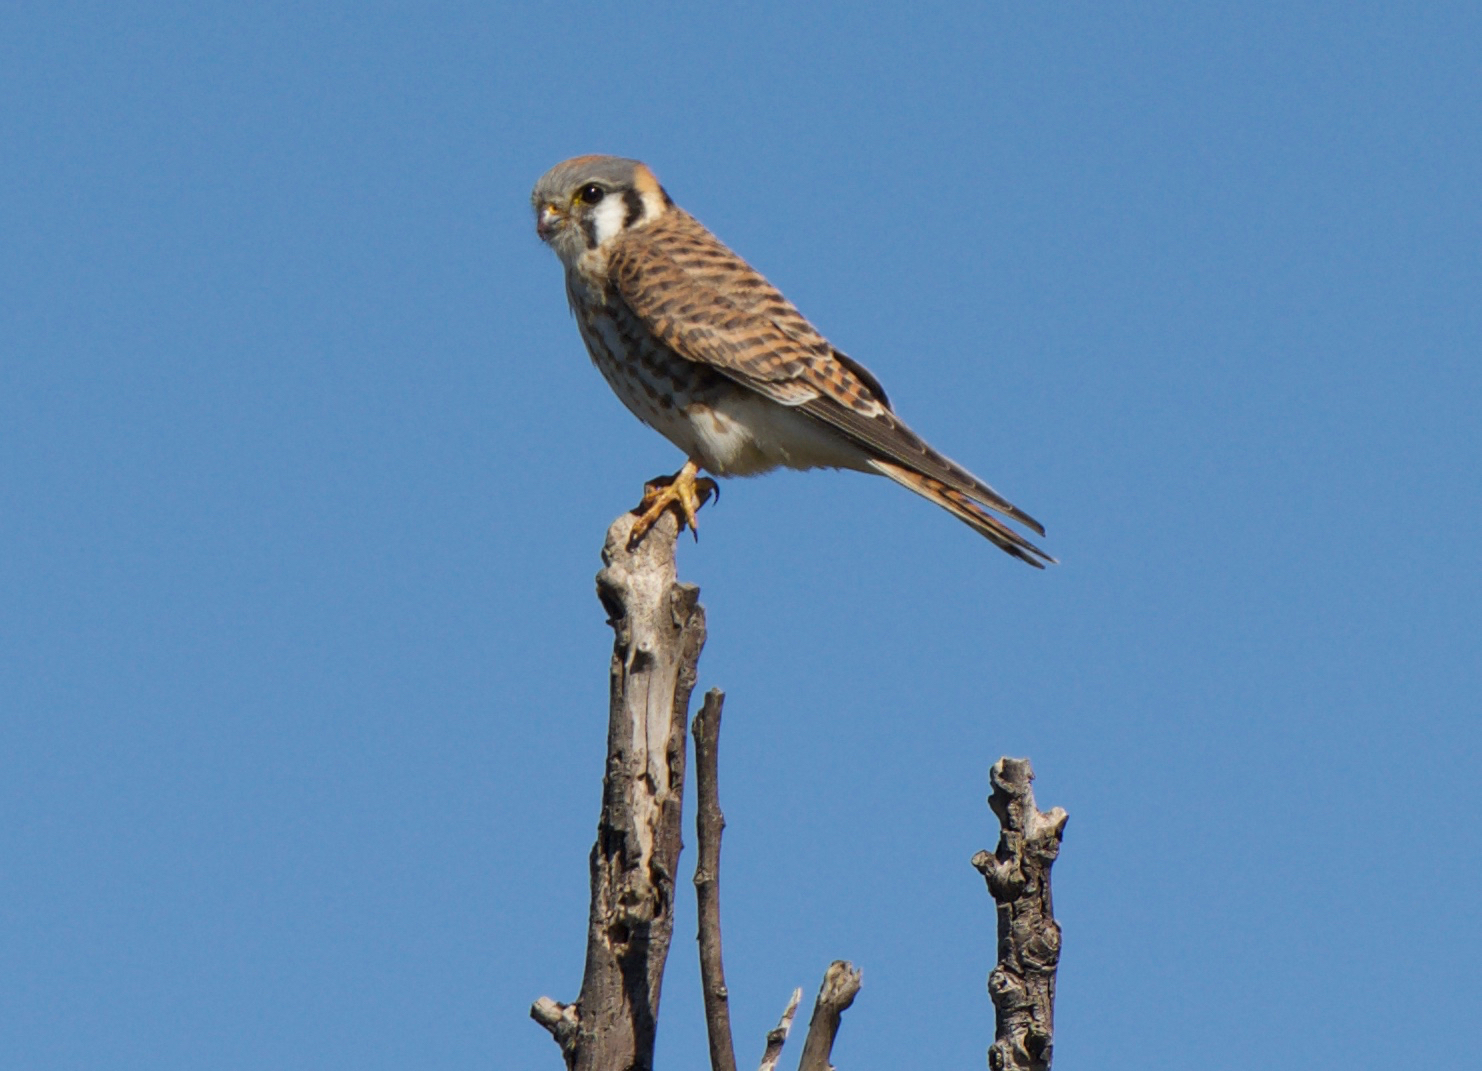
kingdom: Animalia
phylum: Chordata
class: Aves
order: Falconiformes
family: Falconidae
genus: Falco
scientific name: Falco sparverius
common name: American kestrel
